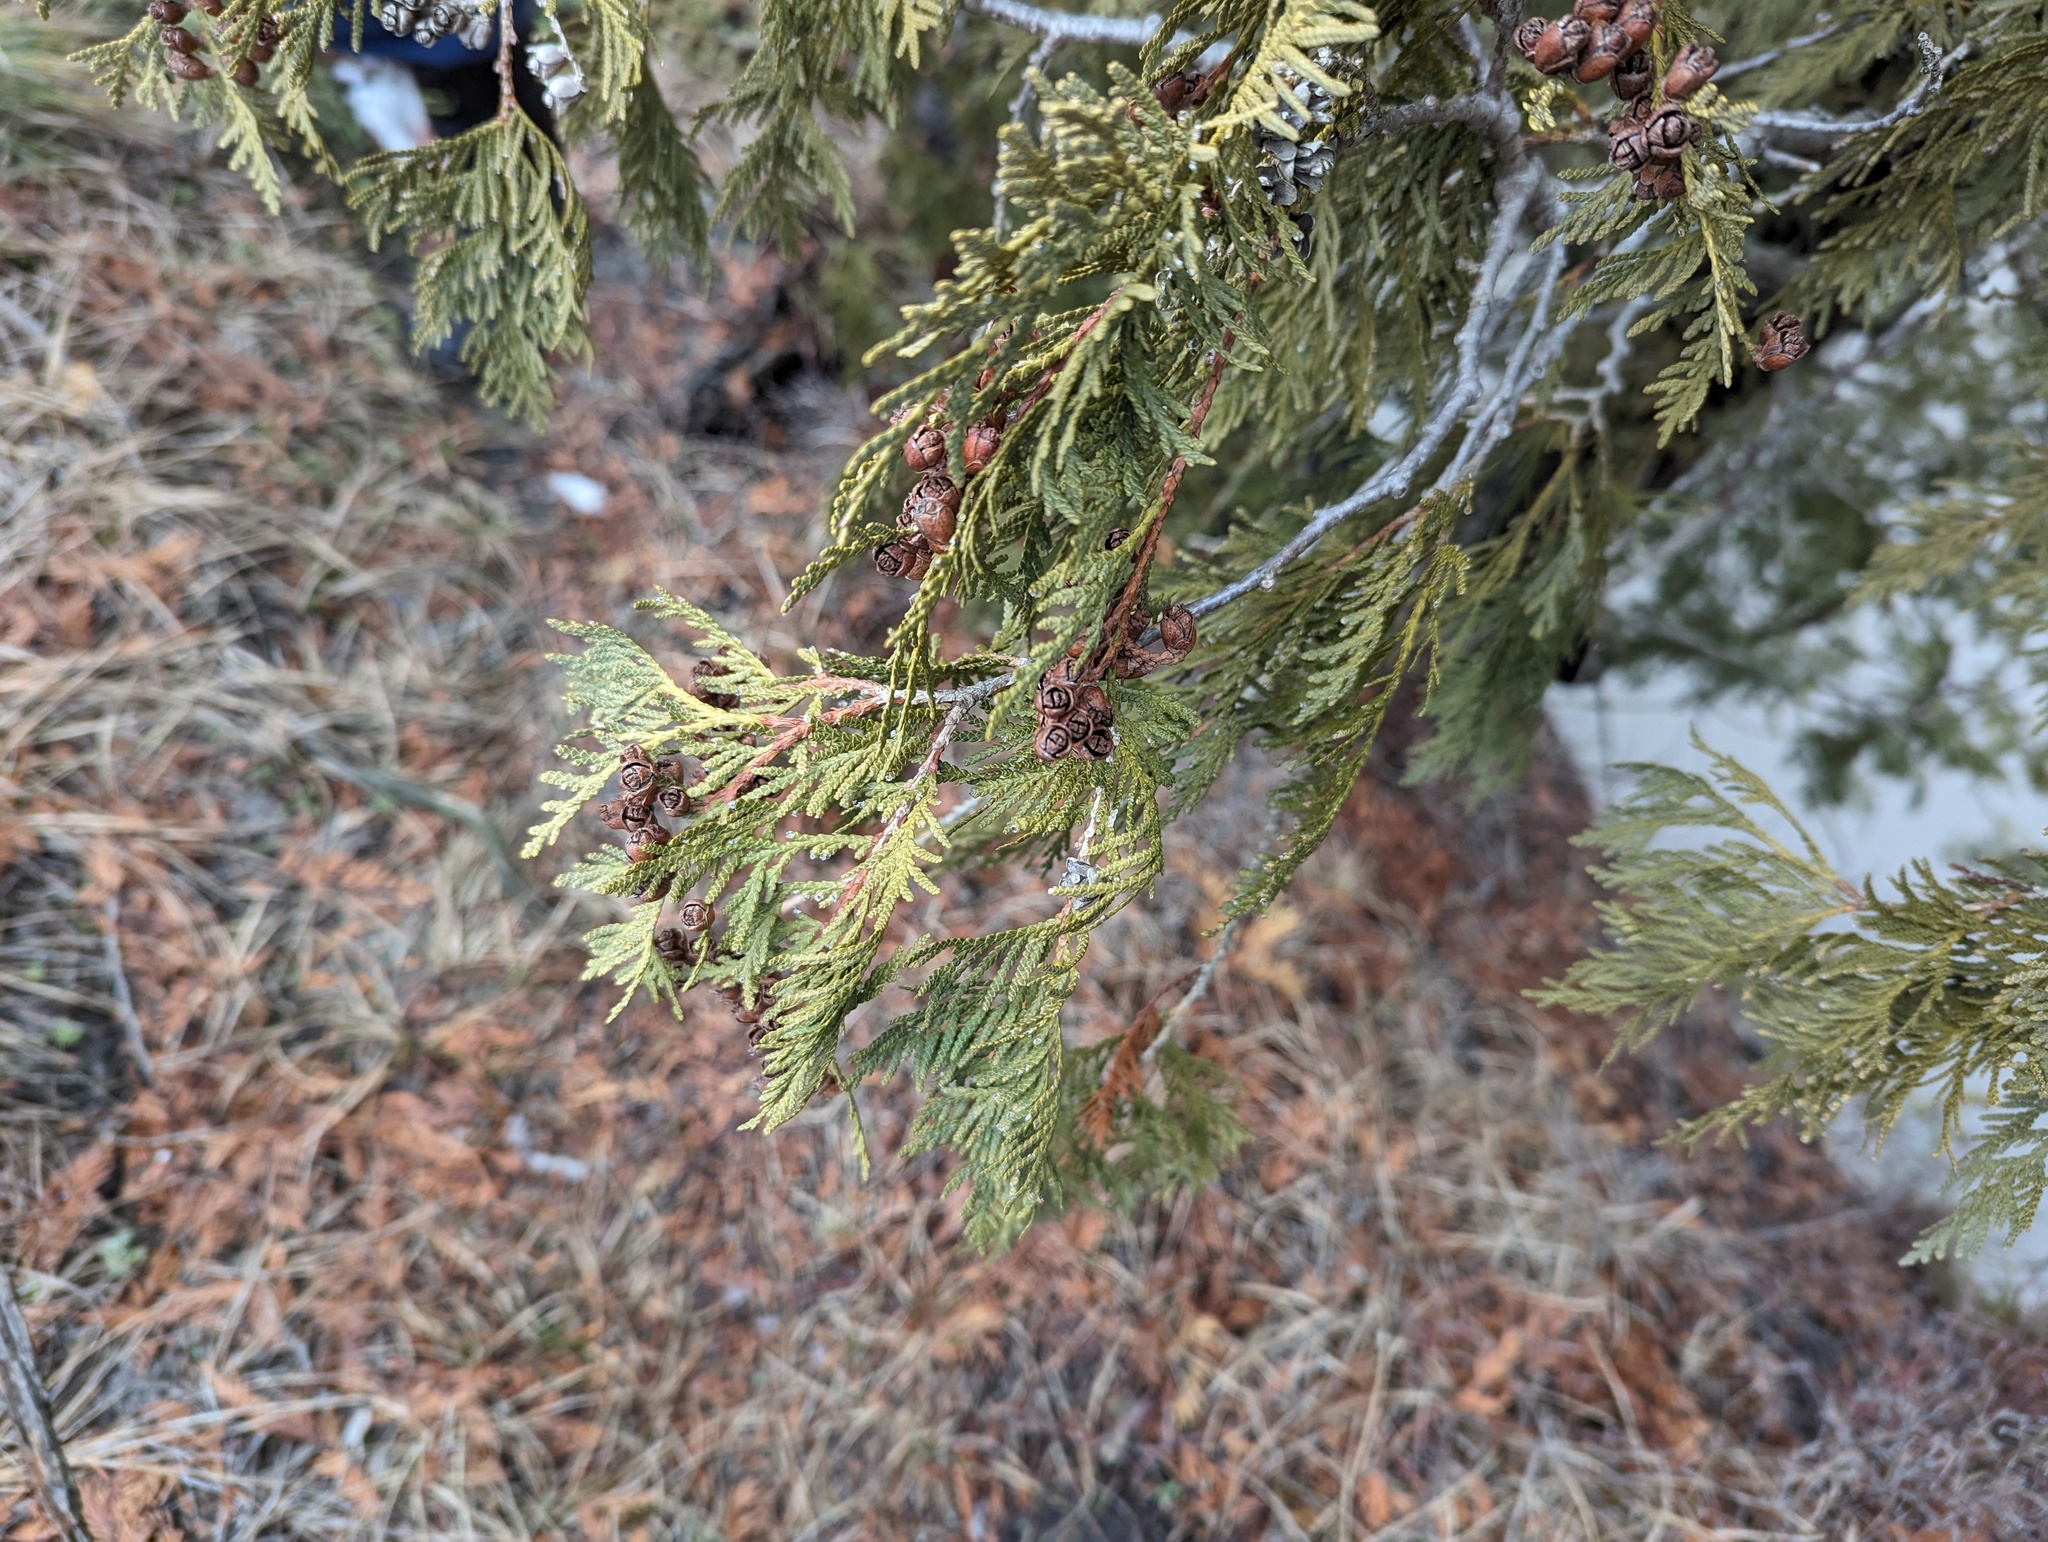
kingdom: Plantae
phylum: Tracheophyta
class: Pinopsida
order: Pinales
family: Cupressaceae
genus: Thuja
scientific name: Thuja occidentalis
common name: Northern white-cedar
